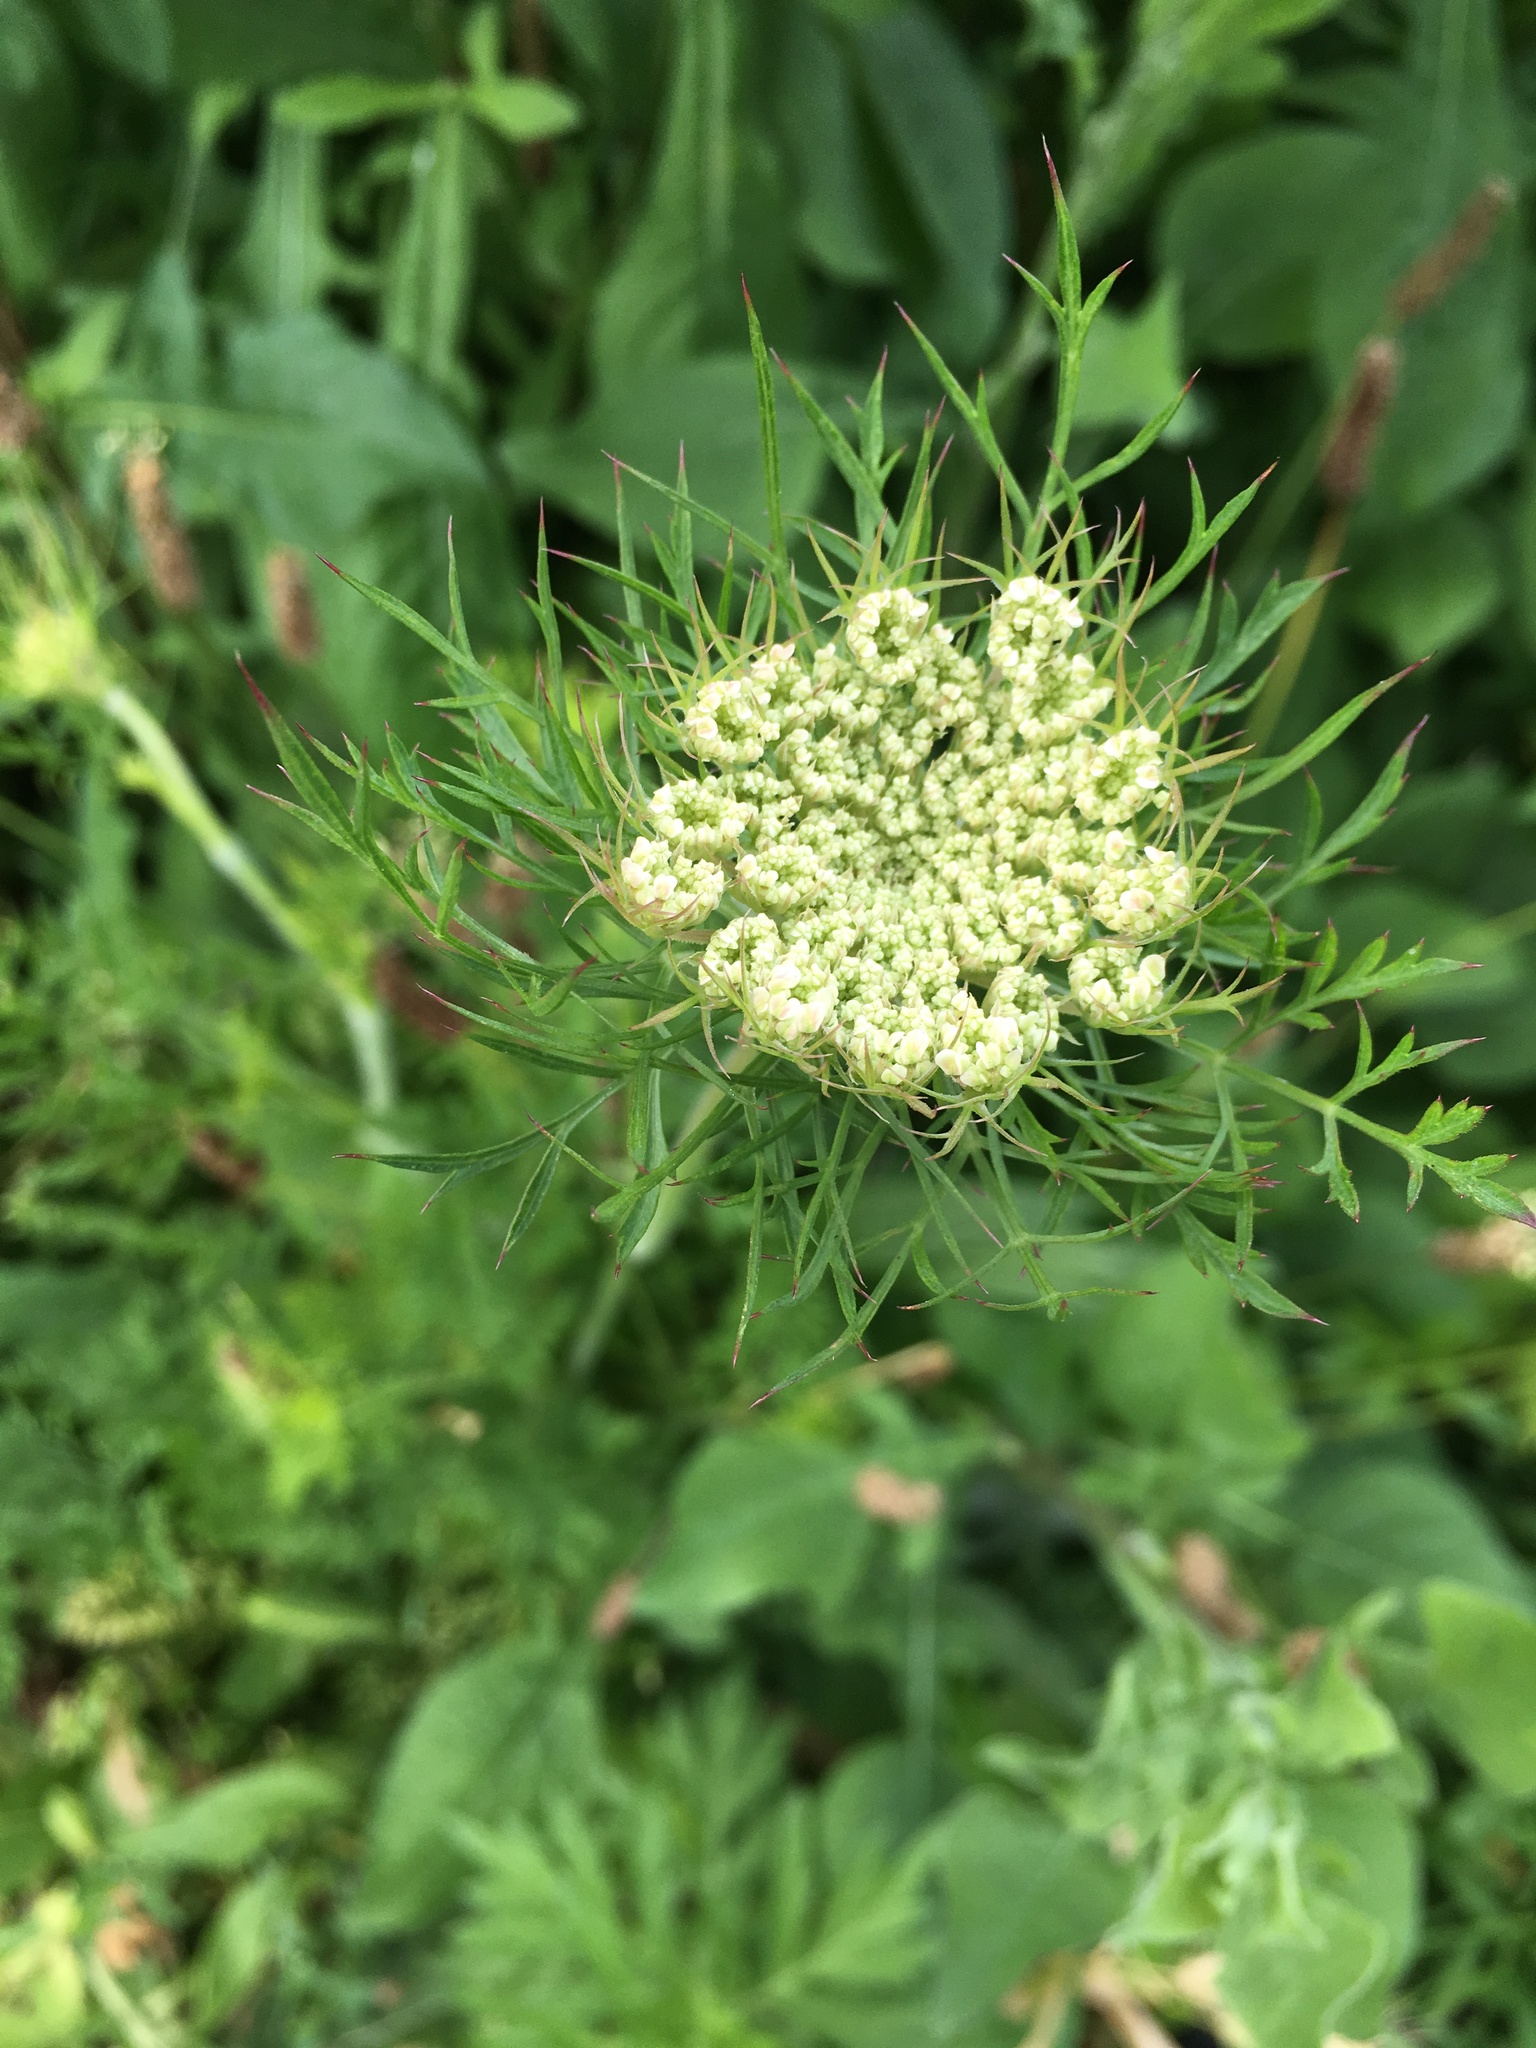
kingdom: Plantae
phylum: Tracheophyta
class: Magnoliopsida
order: Apiales
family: Apiaceae
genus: Daucus
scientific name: Daucus carota
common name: Wild carrot
